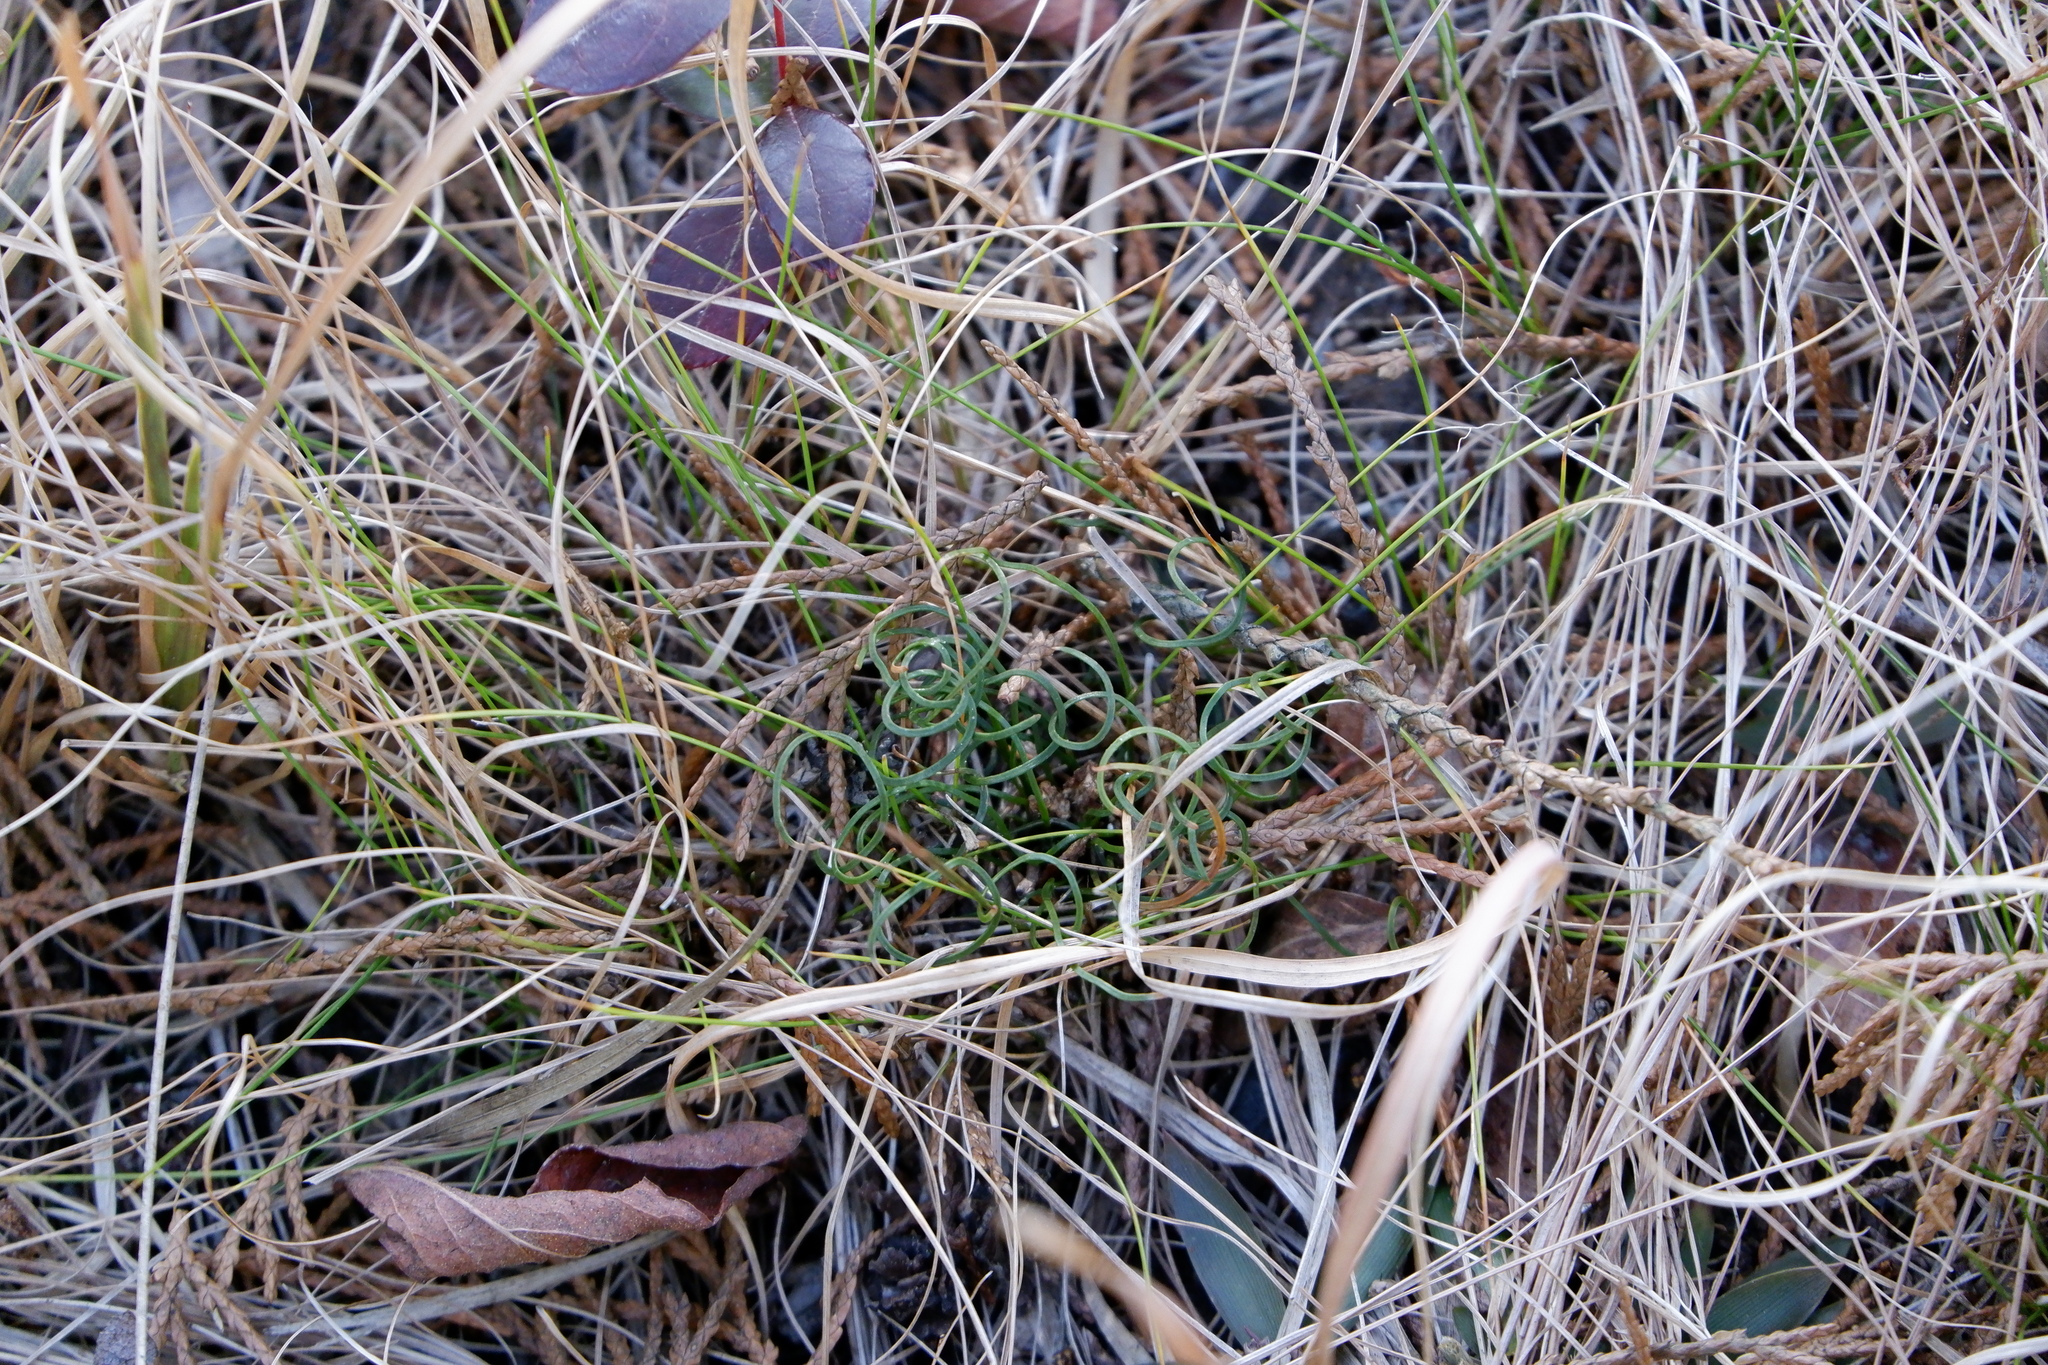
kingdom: Plantae
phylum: Tracheophyta
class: Polypodiopsida
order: Schizaeales
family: Schizaeaceae
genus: Schizaea
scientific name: Schizaea pusilla
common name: Curly-grass fern
